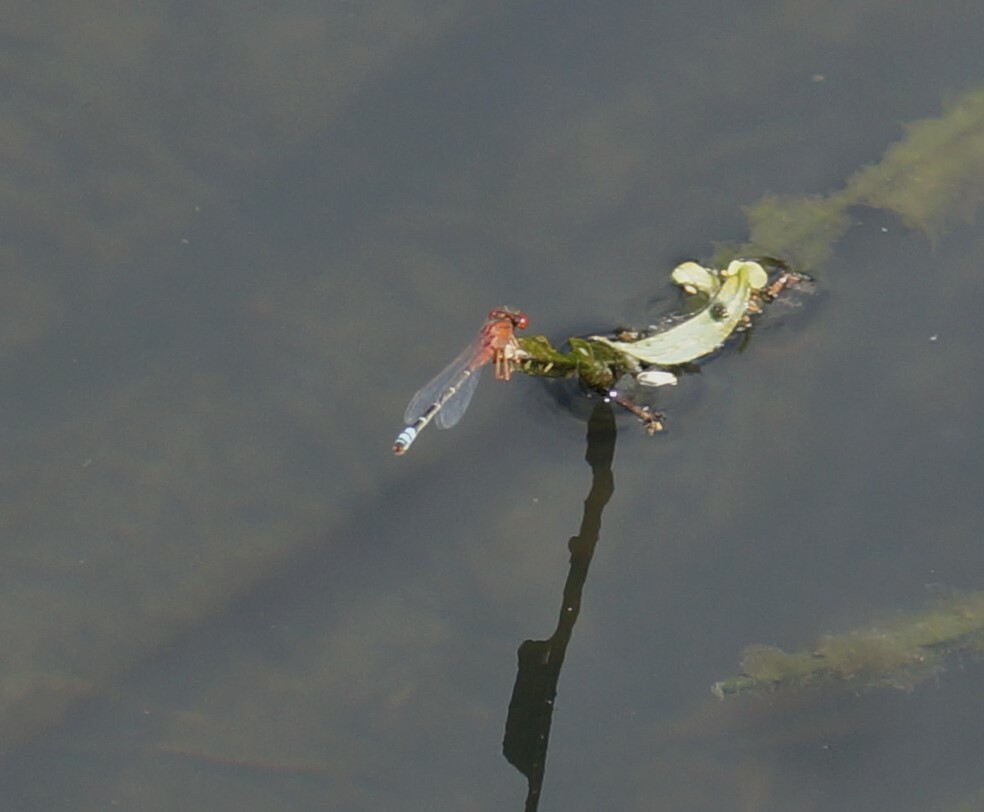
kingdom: Animalia
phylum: Arthropoda
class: Insecta
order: Odonata
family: Coenagrionidae
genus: Xanthagrion
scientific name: Xanthagrion erythroneurum
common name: Red and blue damsel
